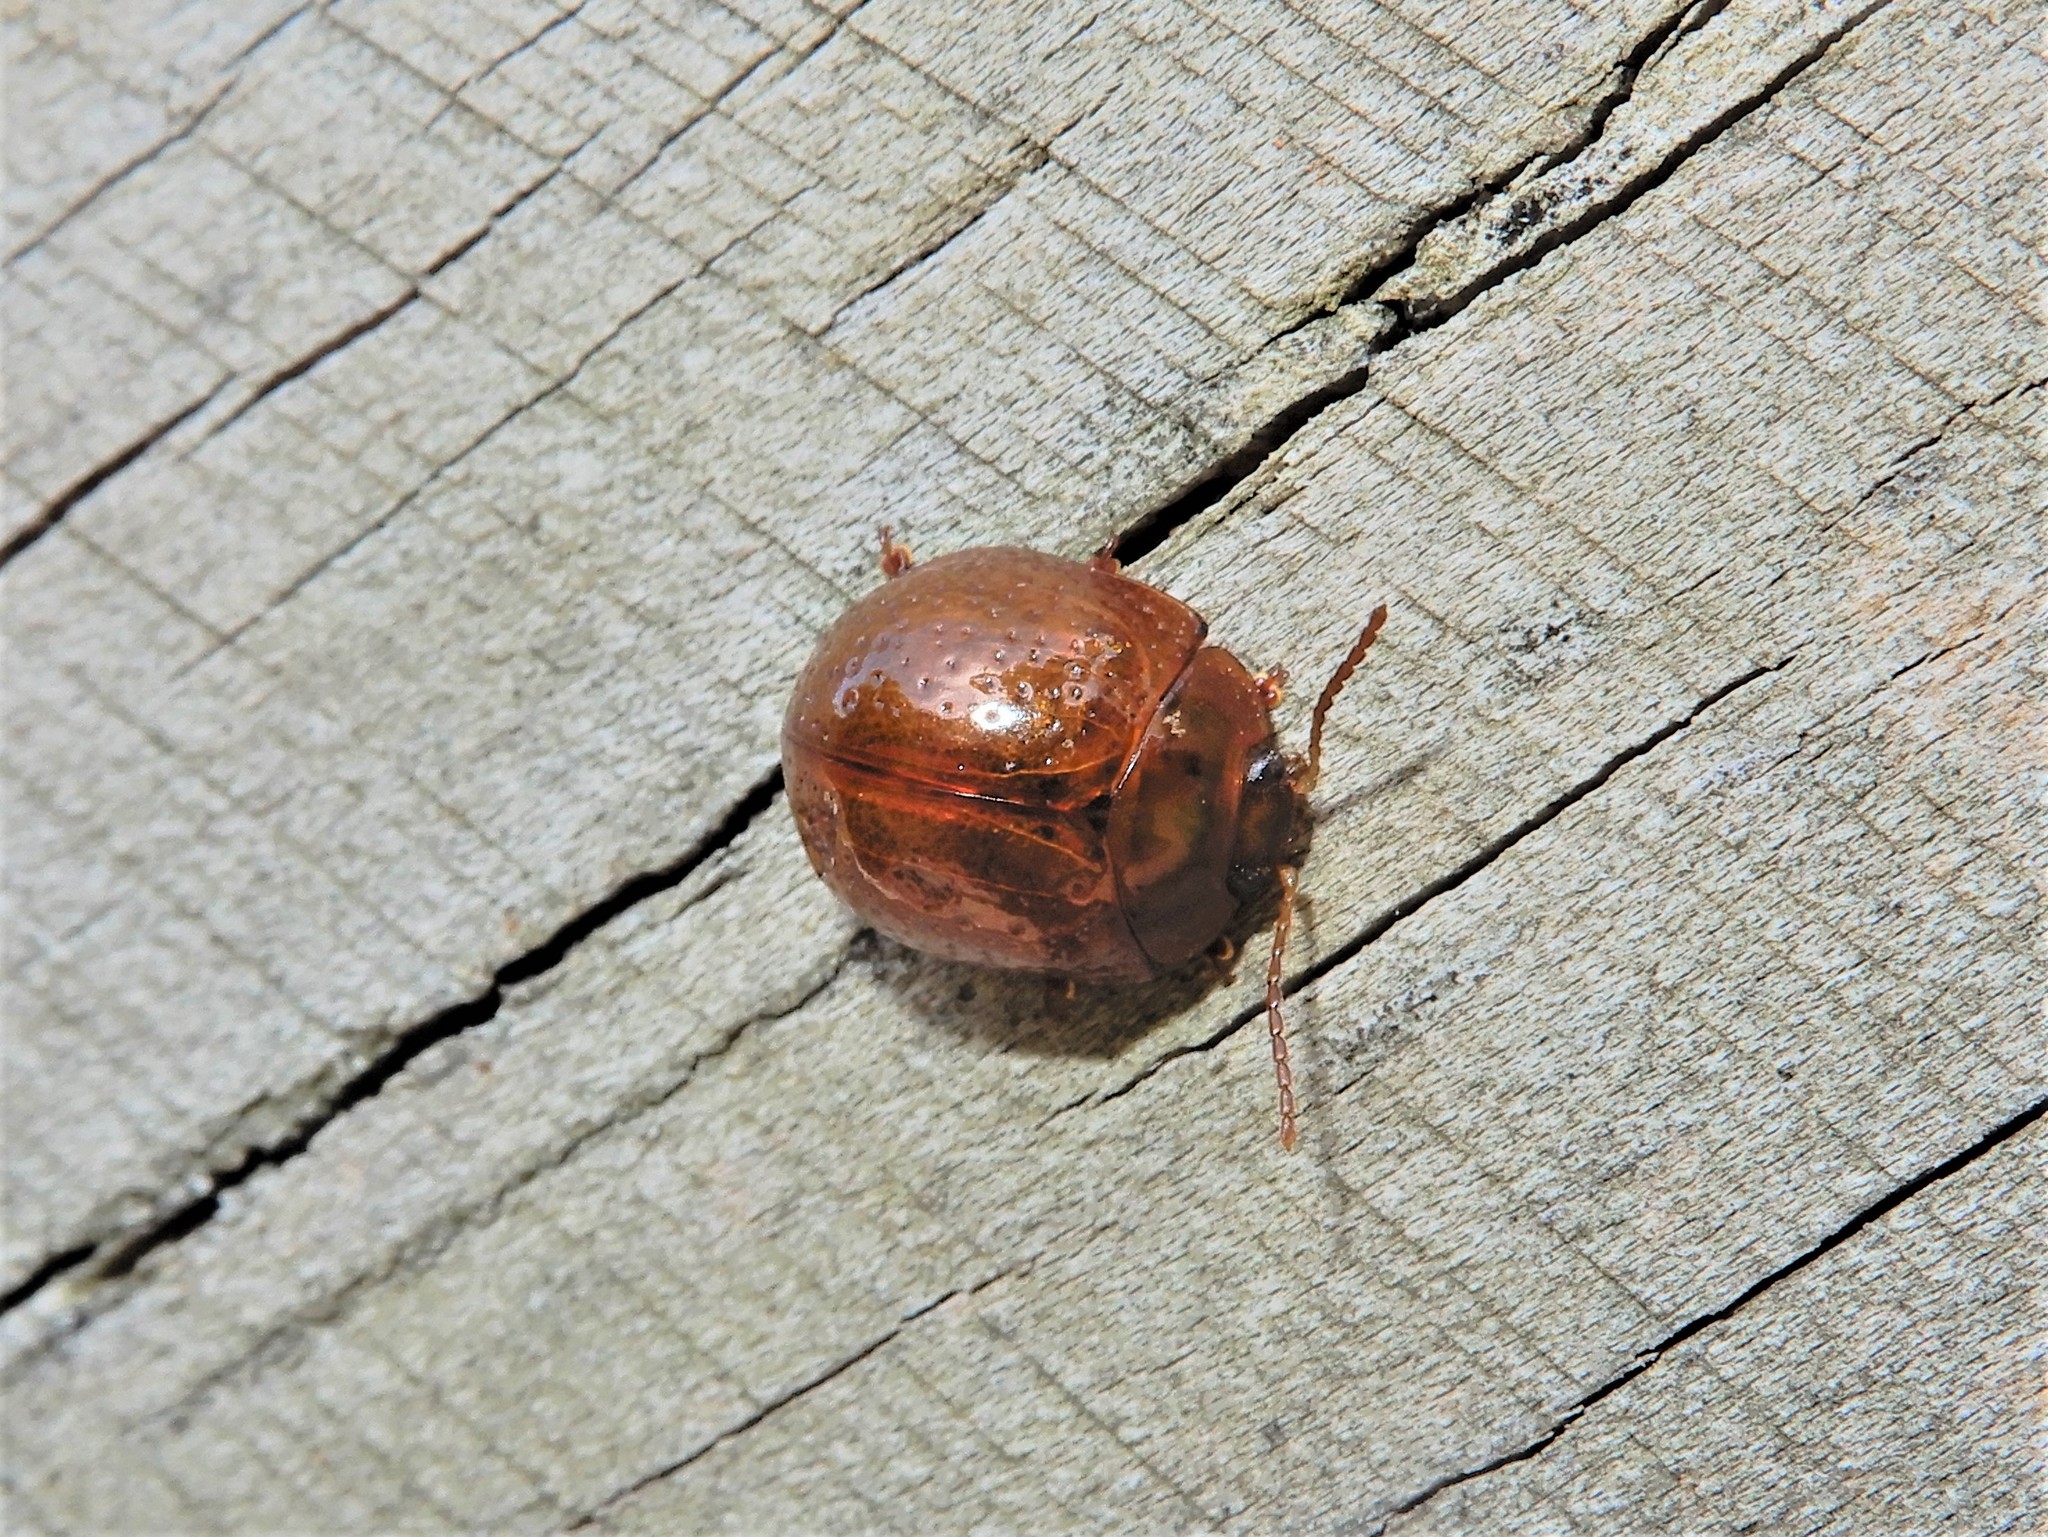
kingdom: Animalia
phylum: Arthropoda
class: Insecta
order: Coleoptera
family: Chrysomelidae
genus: Dicranosterna
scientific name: Dicranosterna
